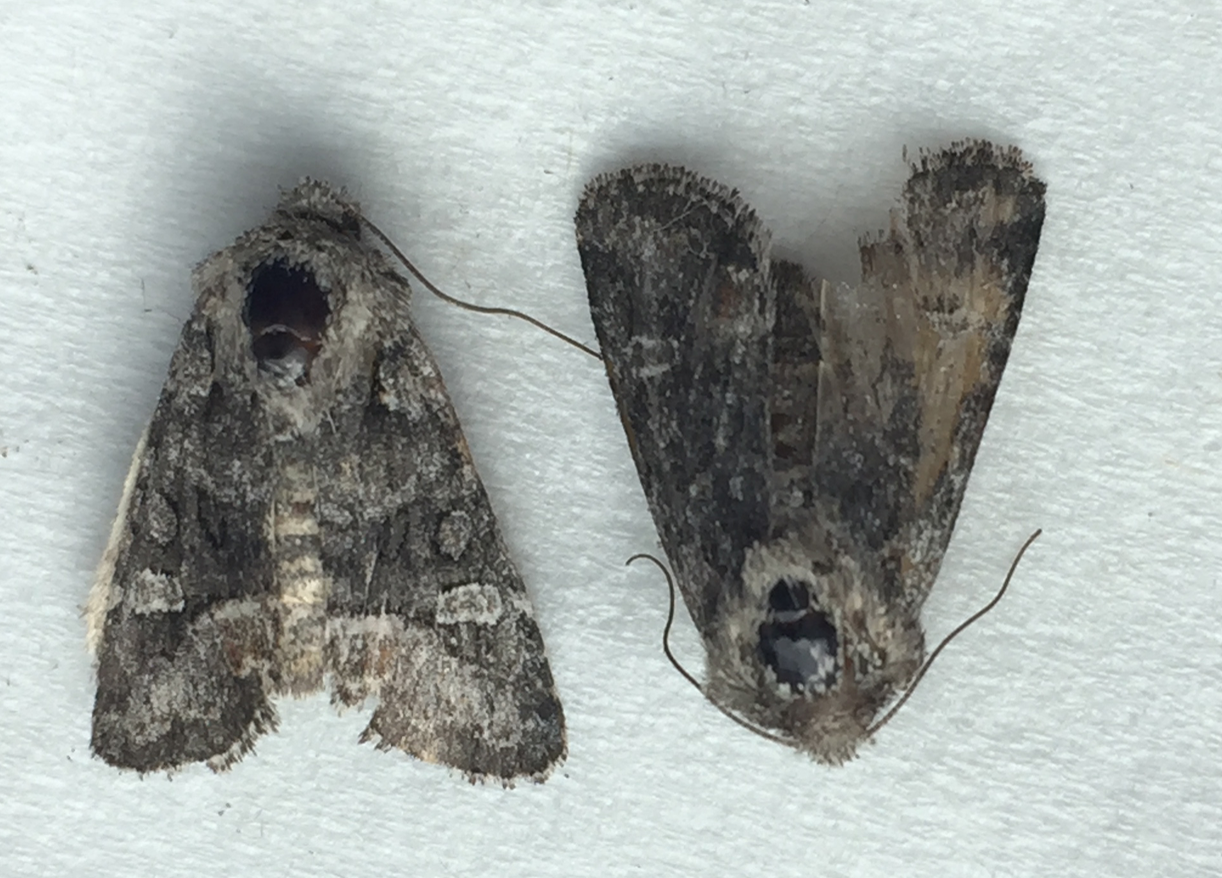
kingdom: Animalia
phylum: Arthropoda
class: Insecta
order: Lepidoptera
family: Noctuidae
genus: Lacinipolia
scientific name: Lacinipolia olivacea
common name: Olive arches moth
